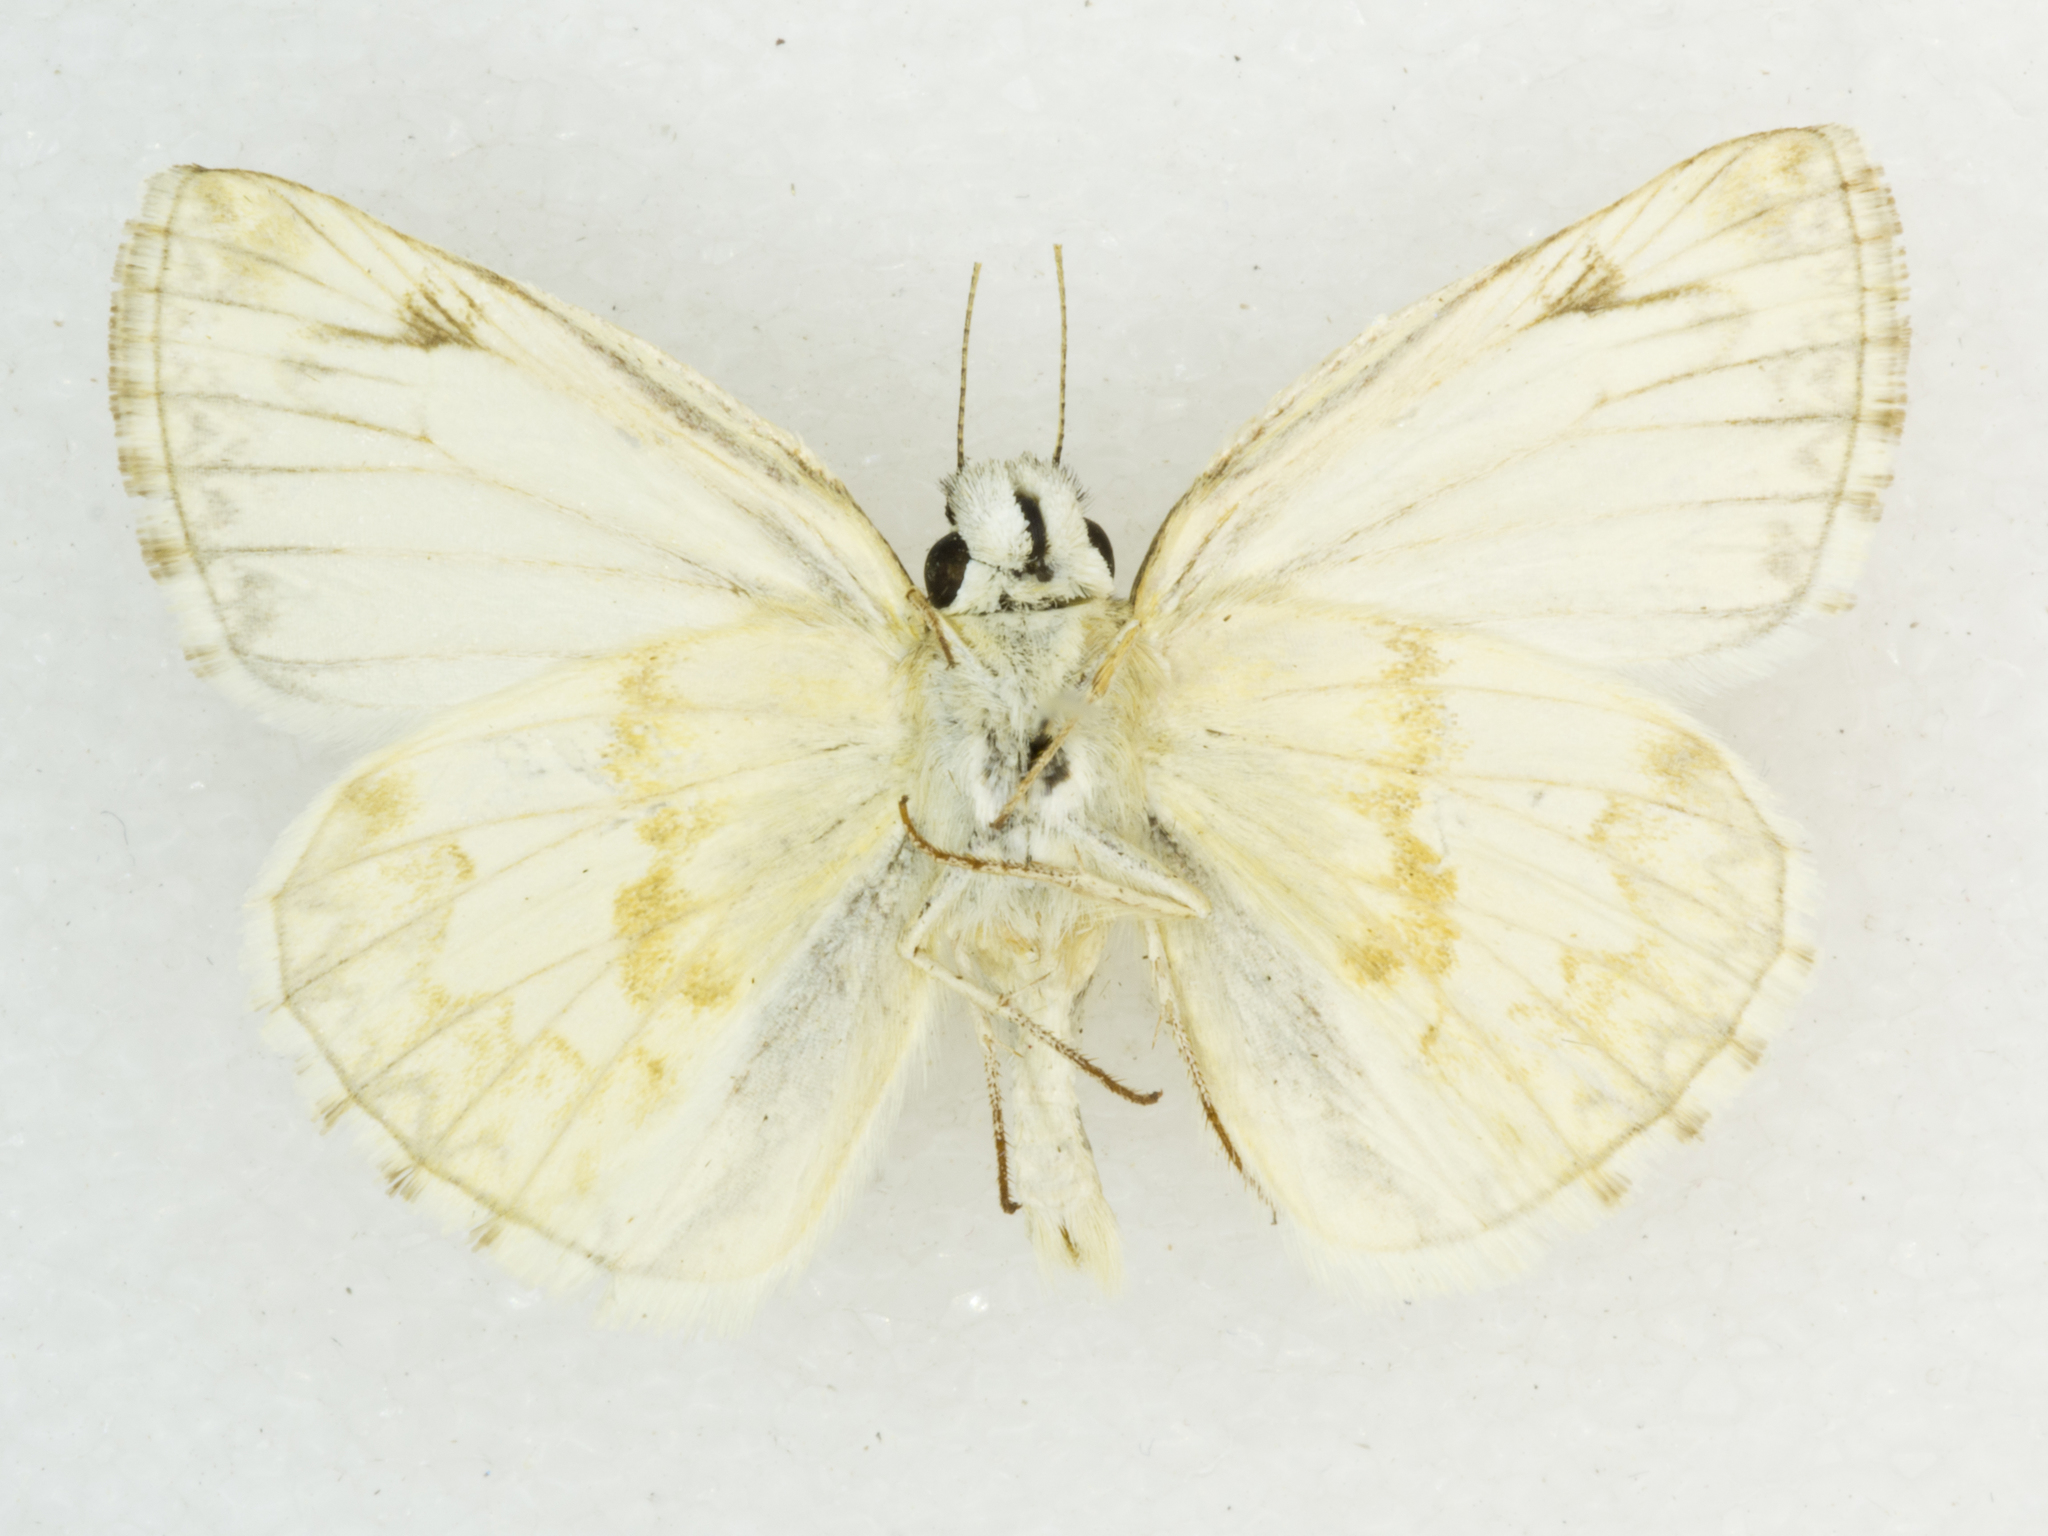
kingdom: Animalia
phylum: Arthropoda
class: Insecta
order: Lepidoptera
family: Hesperiidae
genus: Heliopetes
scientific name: Heliopetes ericetorum
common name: Northern white-skipper
